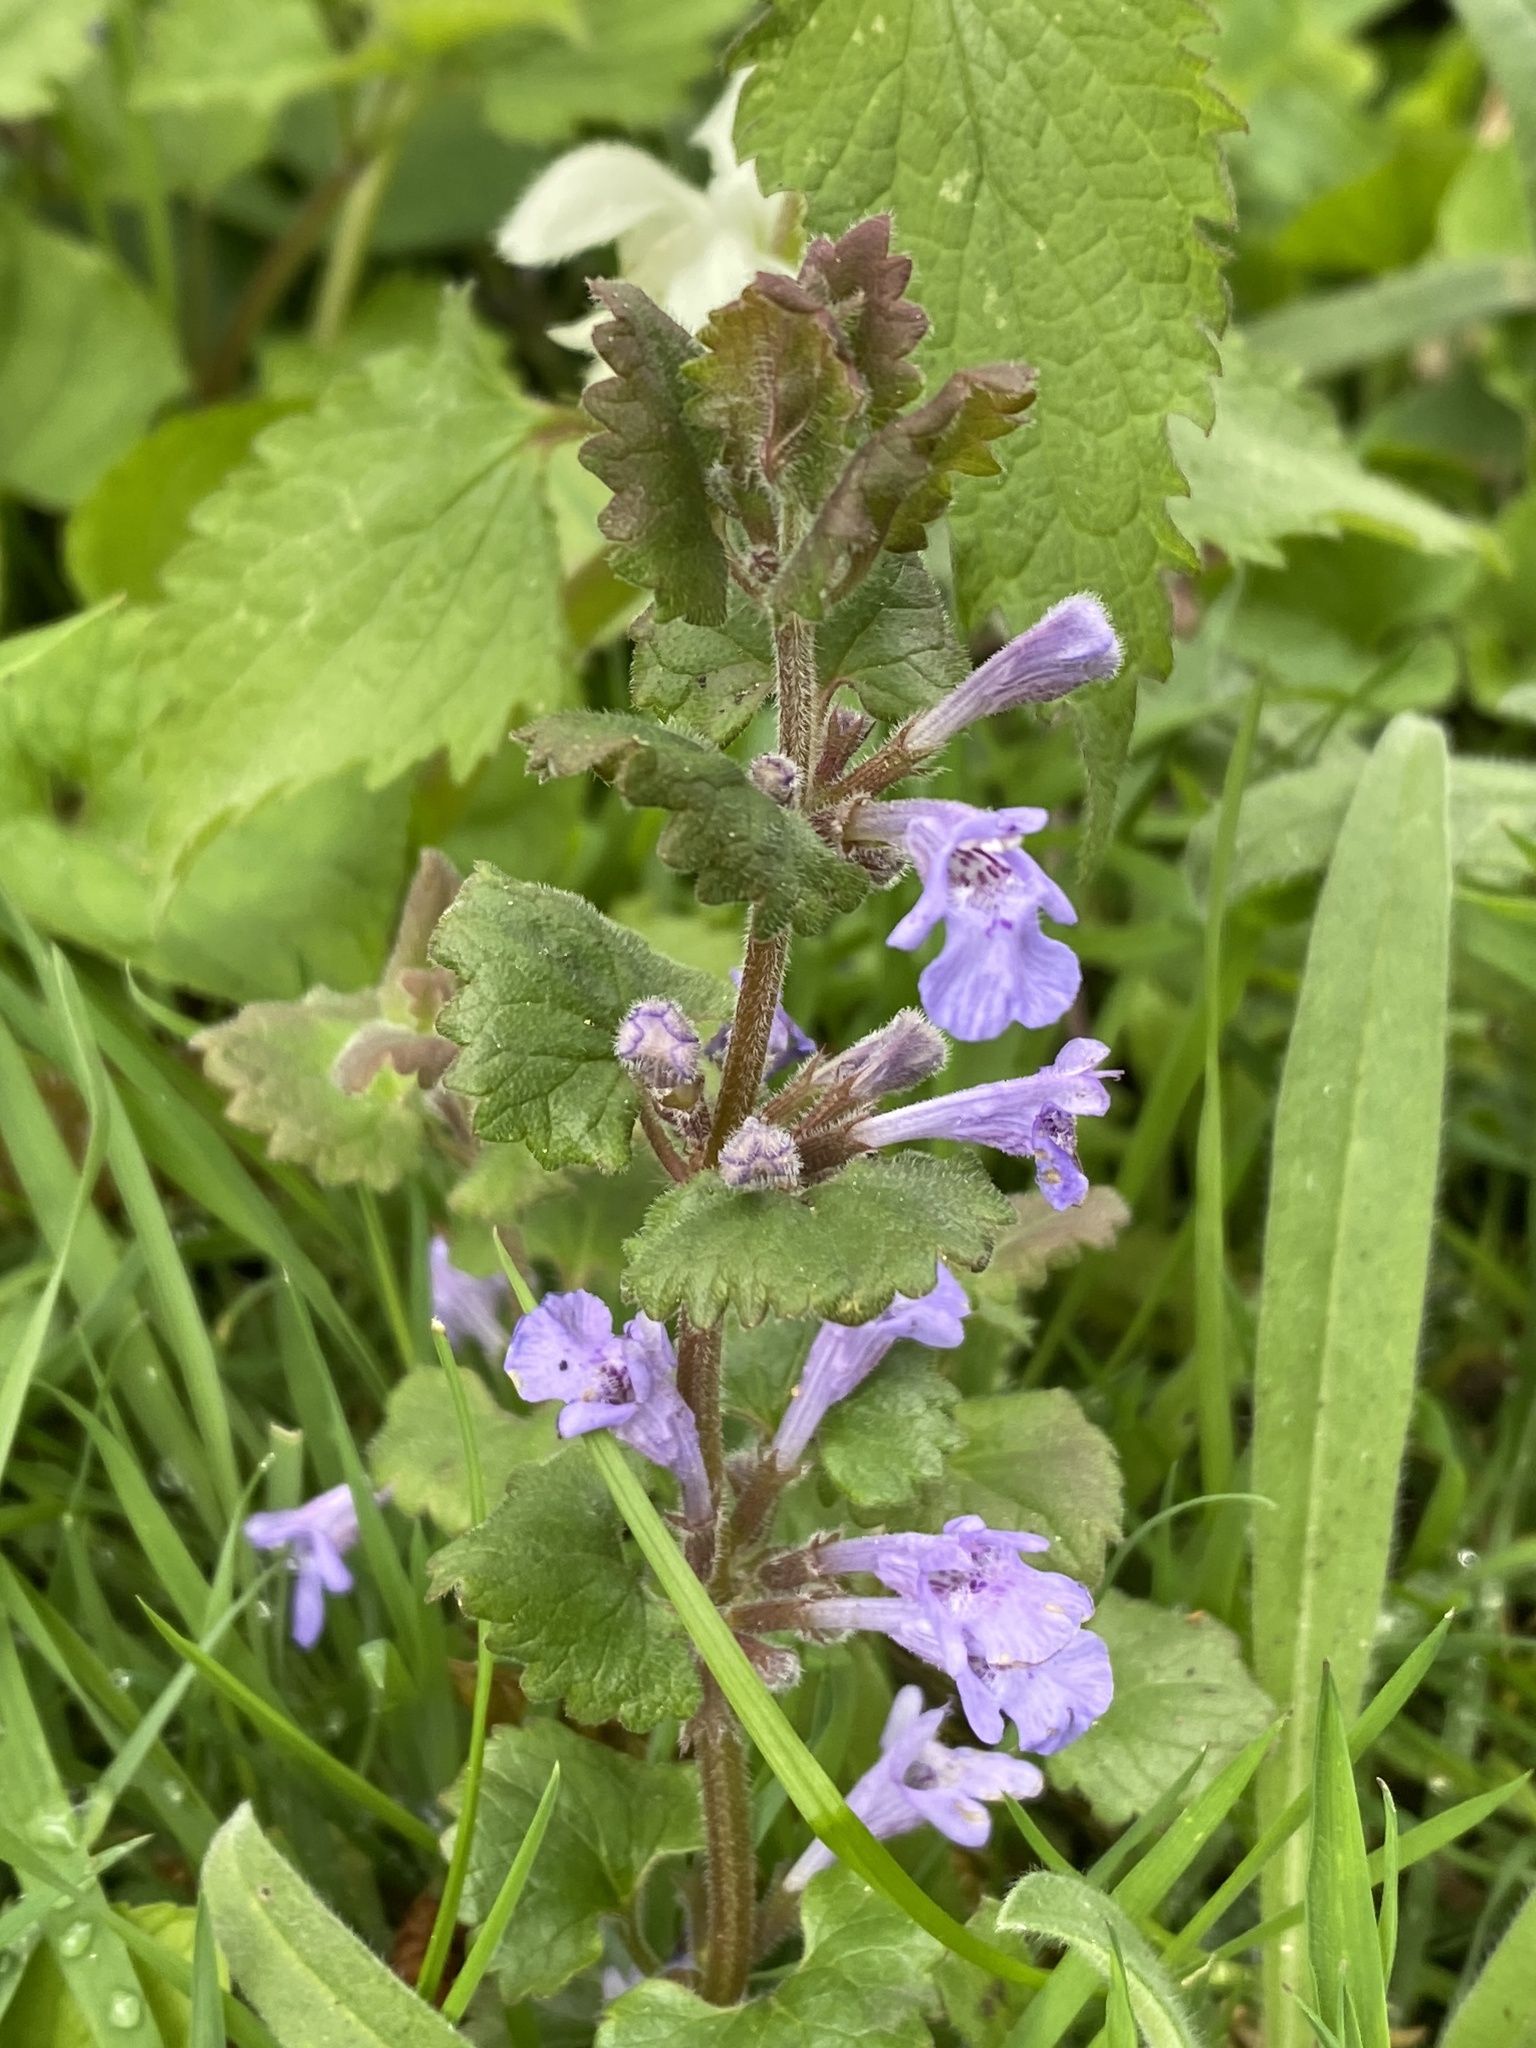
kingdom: Plantae
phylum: Tracheophyta
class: Magnoliopsida
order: Lamiales
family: Lamiaceae
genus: Glechoma
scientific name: Glechoma hederacea
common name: Ground ivy
